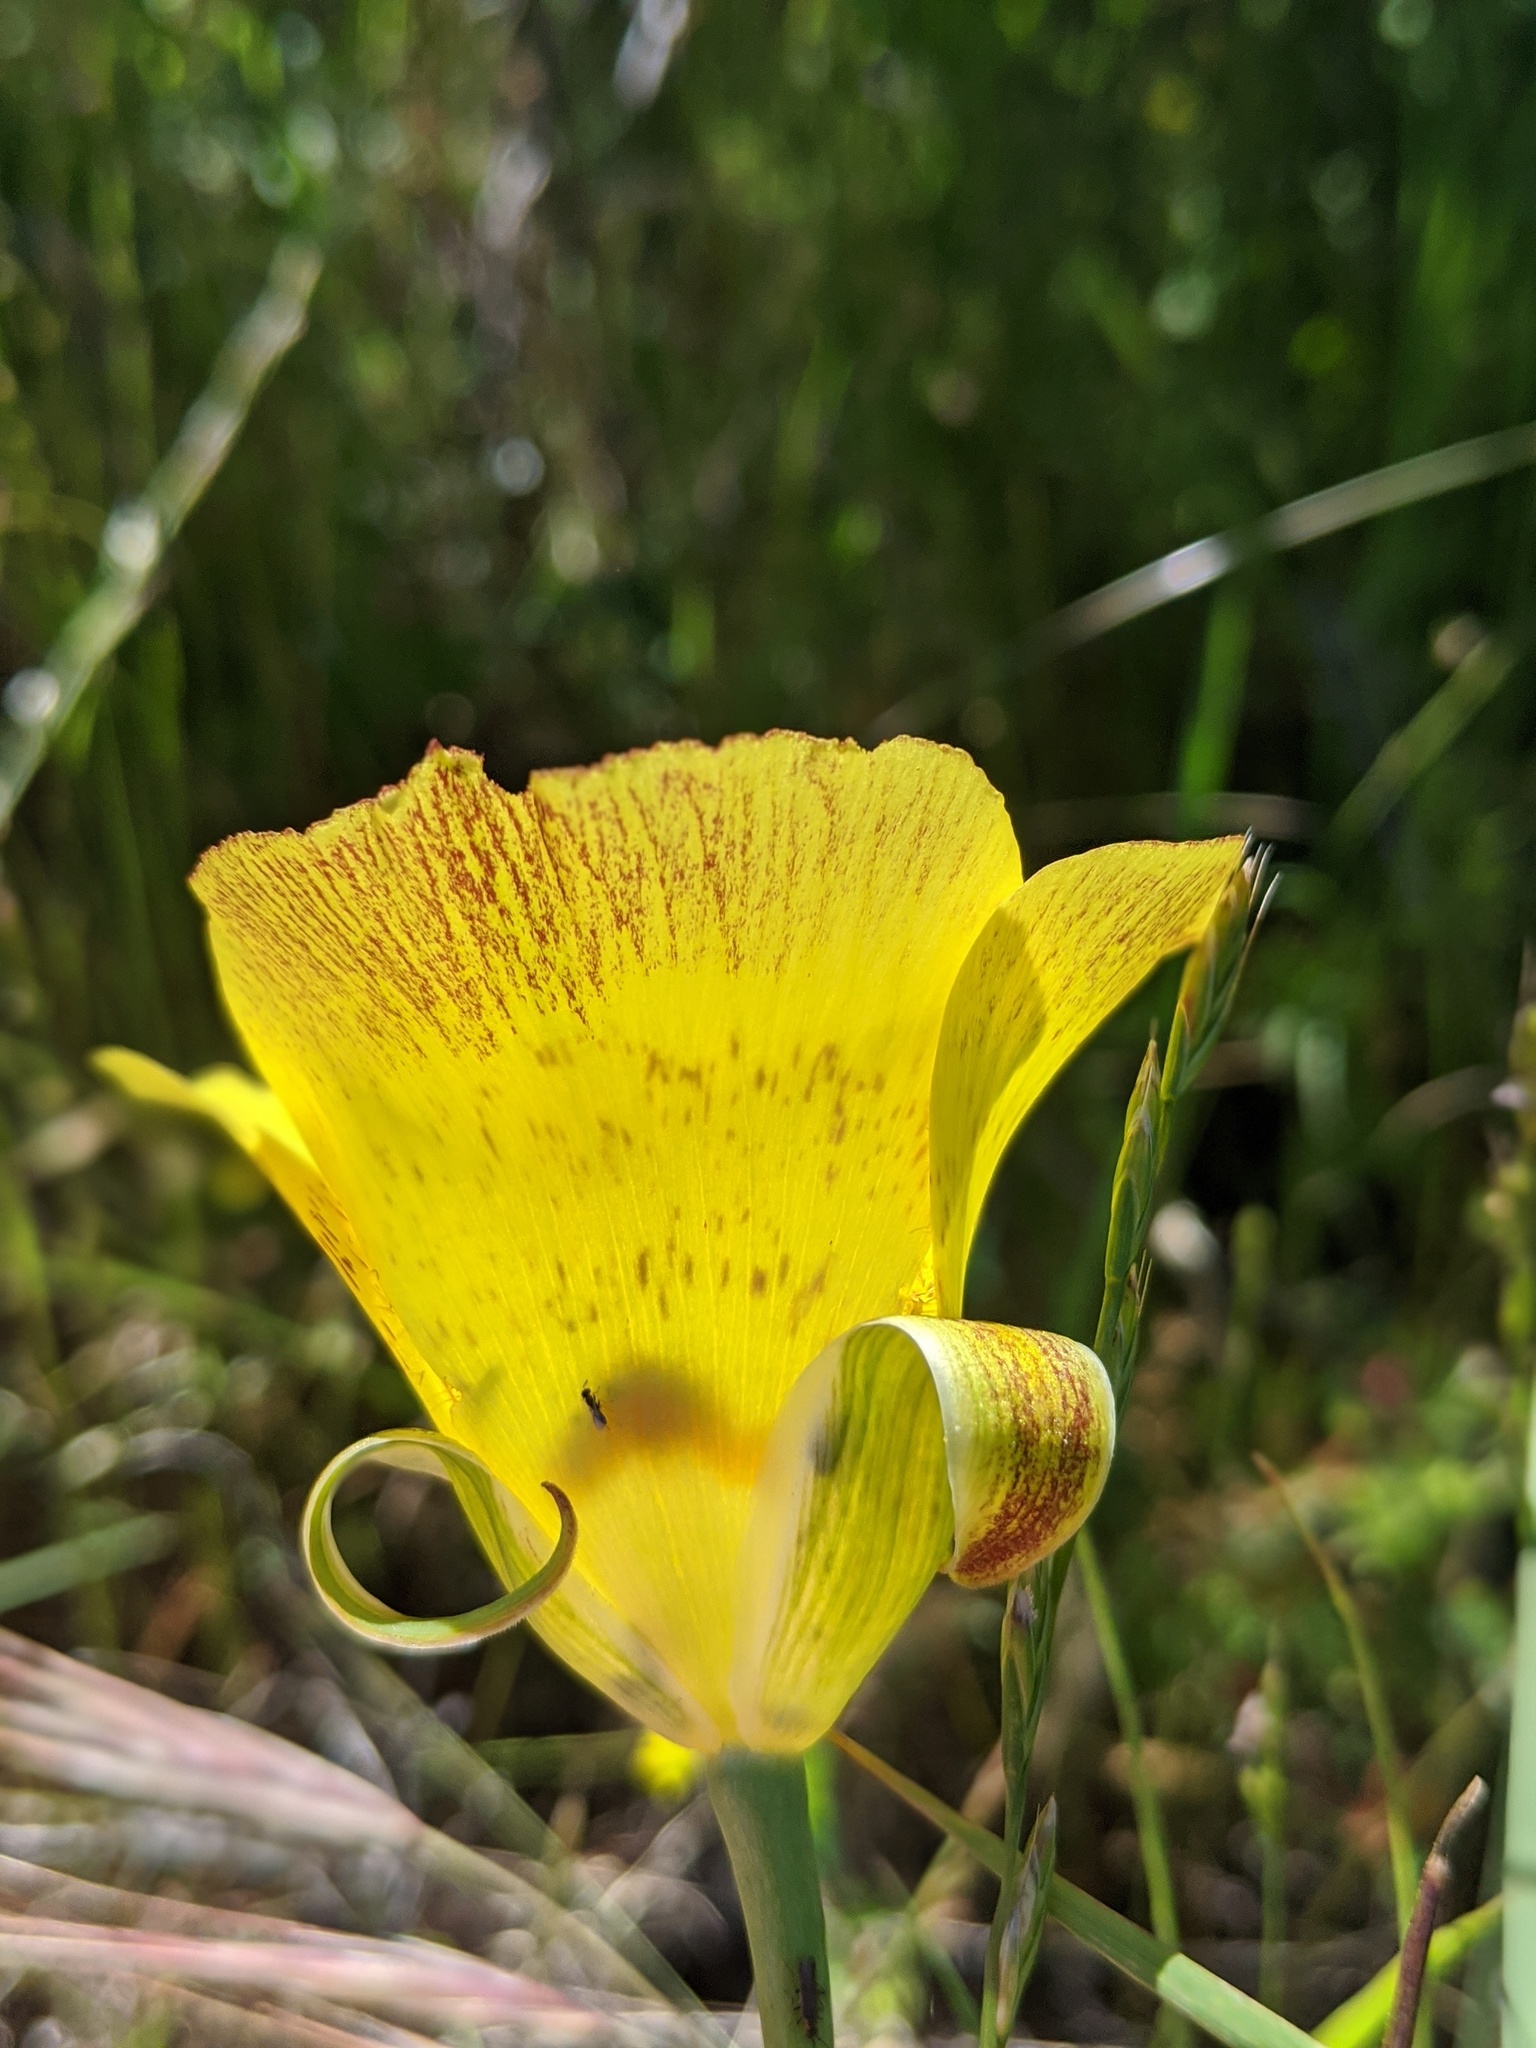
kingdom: Plantae
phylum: Tracheophyta
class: Liliopsida
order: Liliales
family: Liliaceae
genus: Calochortus
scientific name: Calochortus luteus
